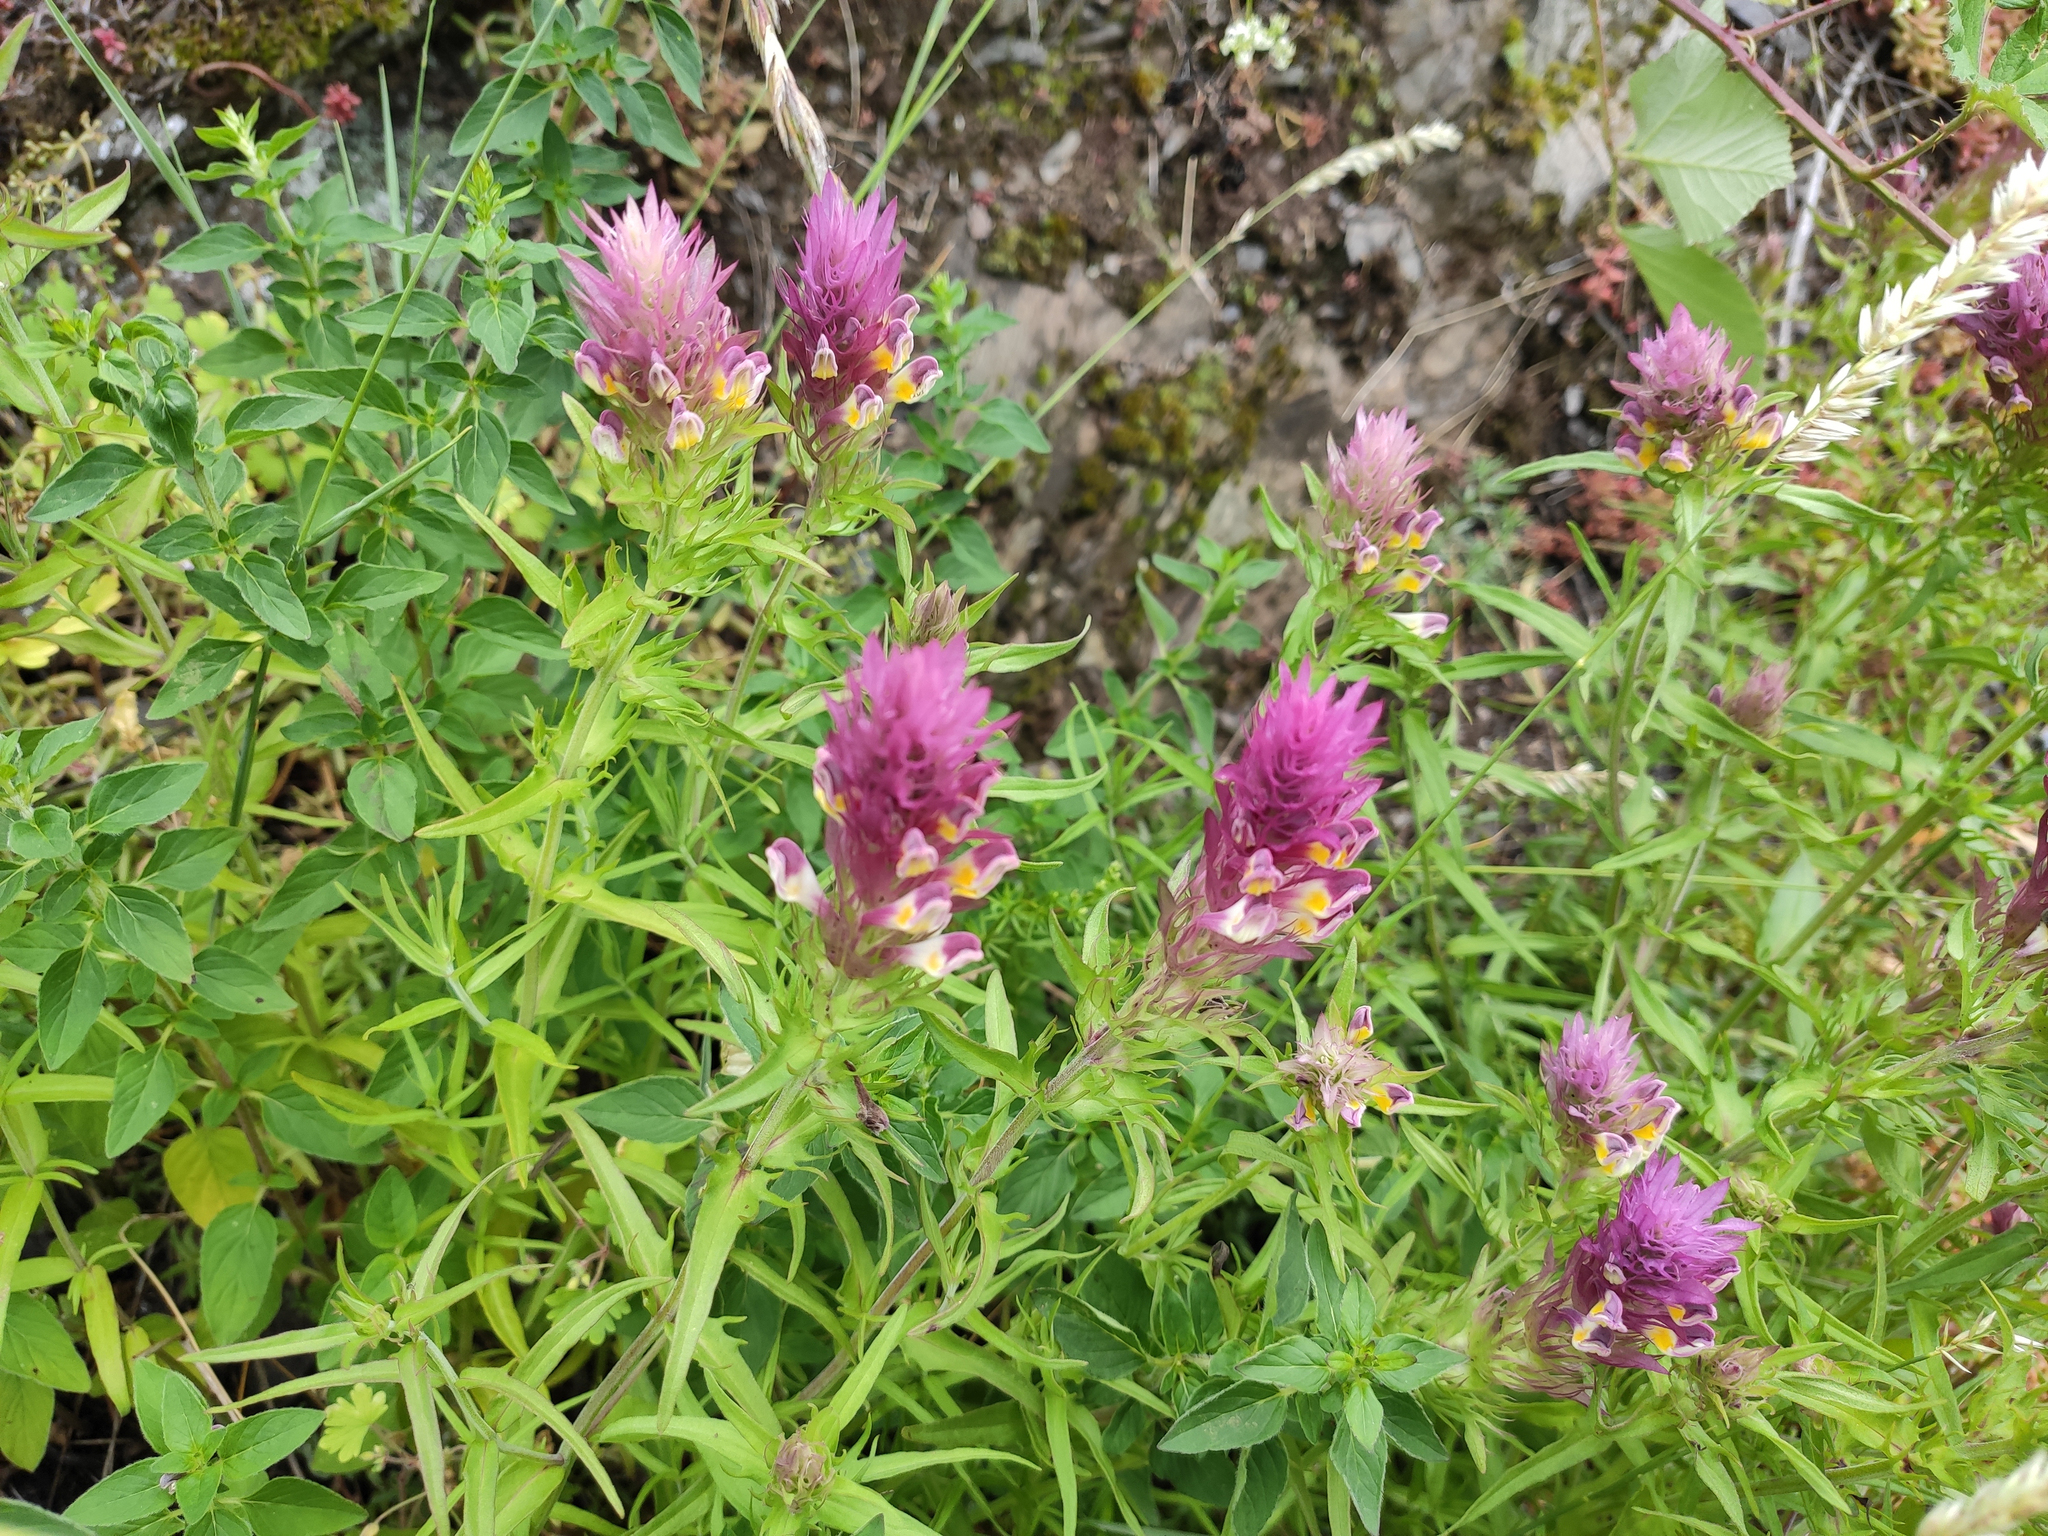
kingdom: Plantae
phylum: Tracheophyta
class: Magnoliopsida
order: Lamiales
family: Orobanchaceae
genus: Melampyrum
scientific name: Melampyrum arvense
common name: Field cow-wheat
